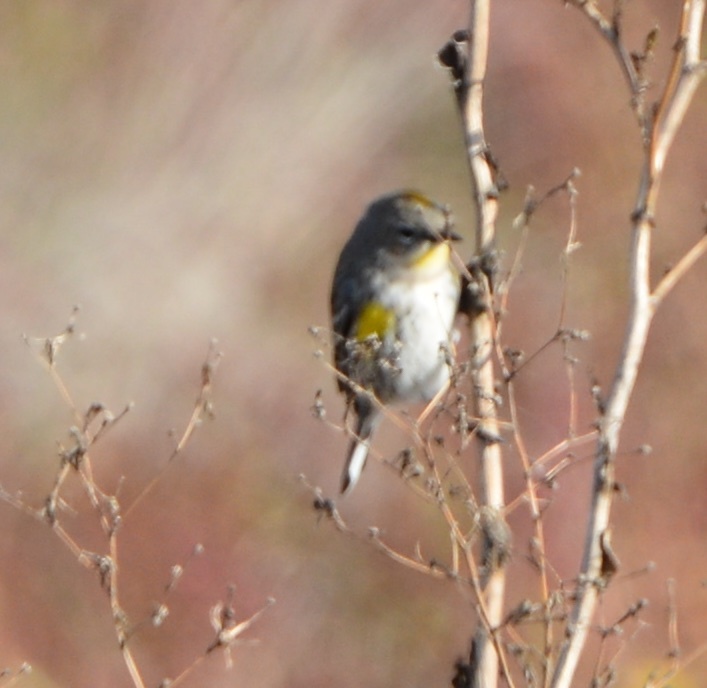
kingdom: Animalia
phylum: Chordata
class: Aves
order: Passeriformes
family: Parulidae
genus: Setophaga
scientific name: Setophaga coronata
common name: Myrtle warbler
